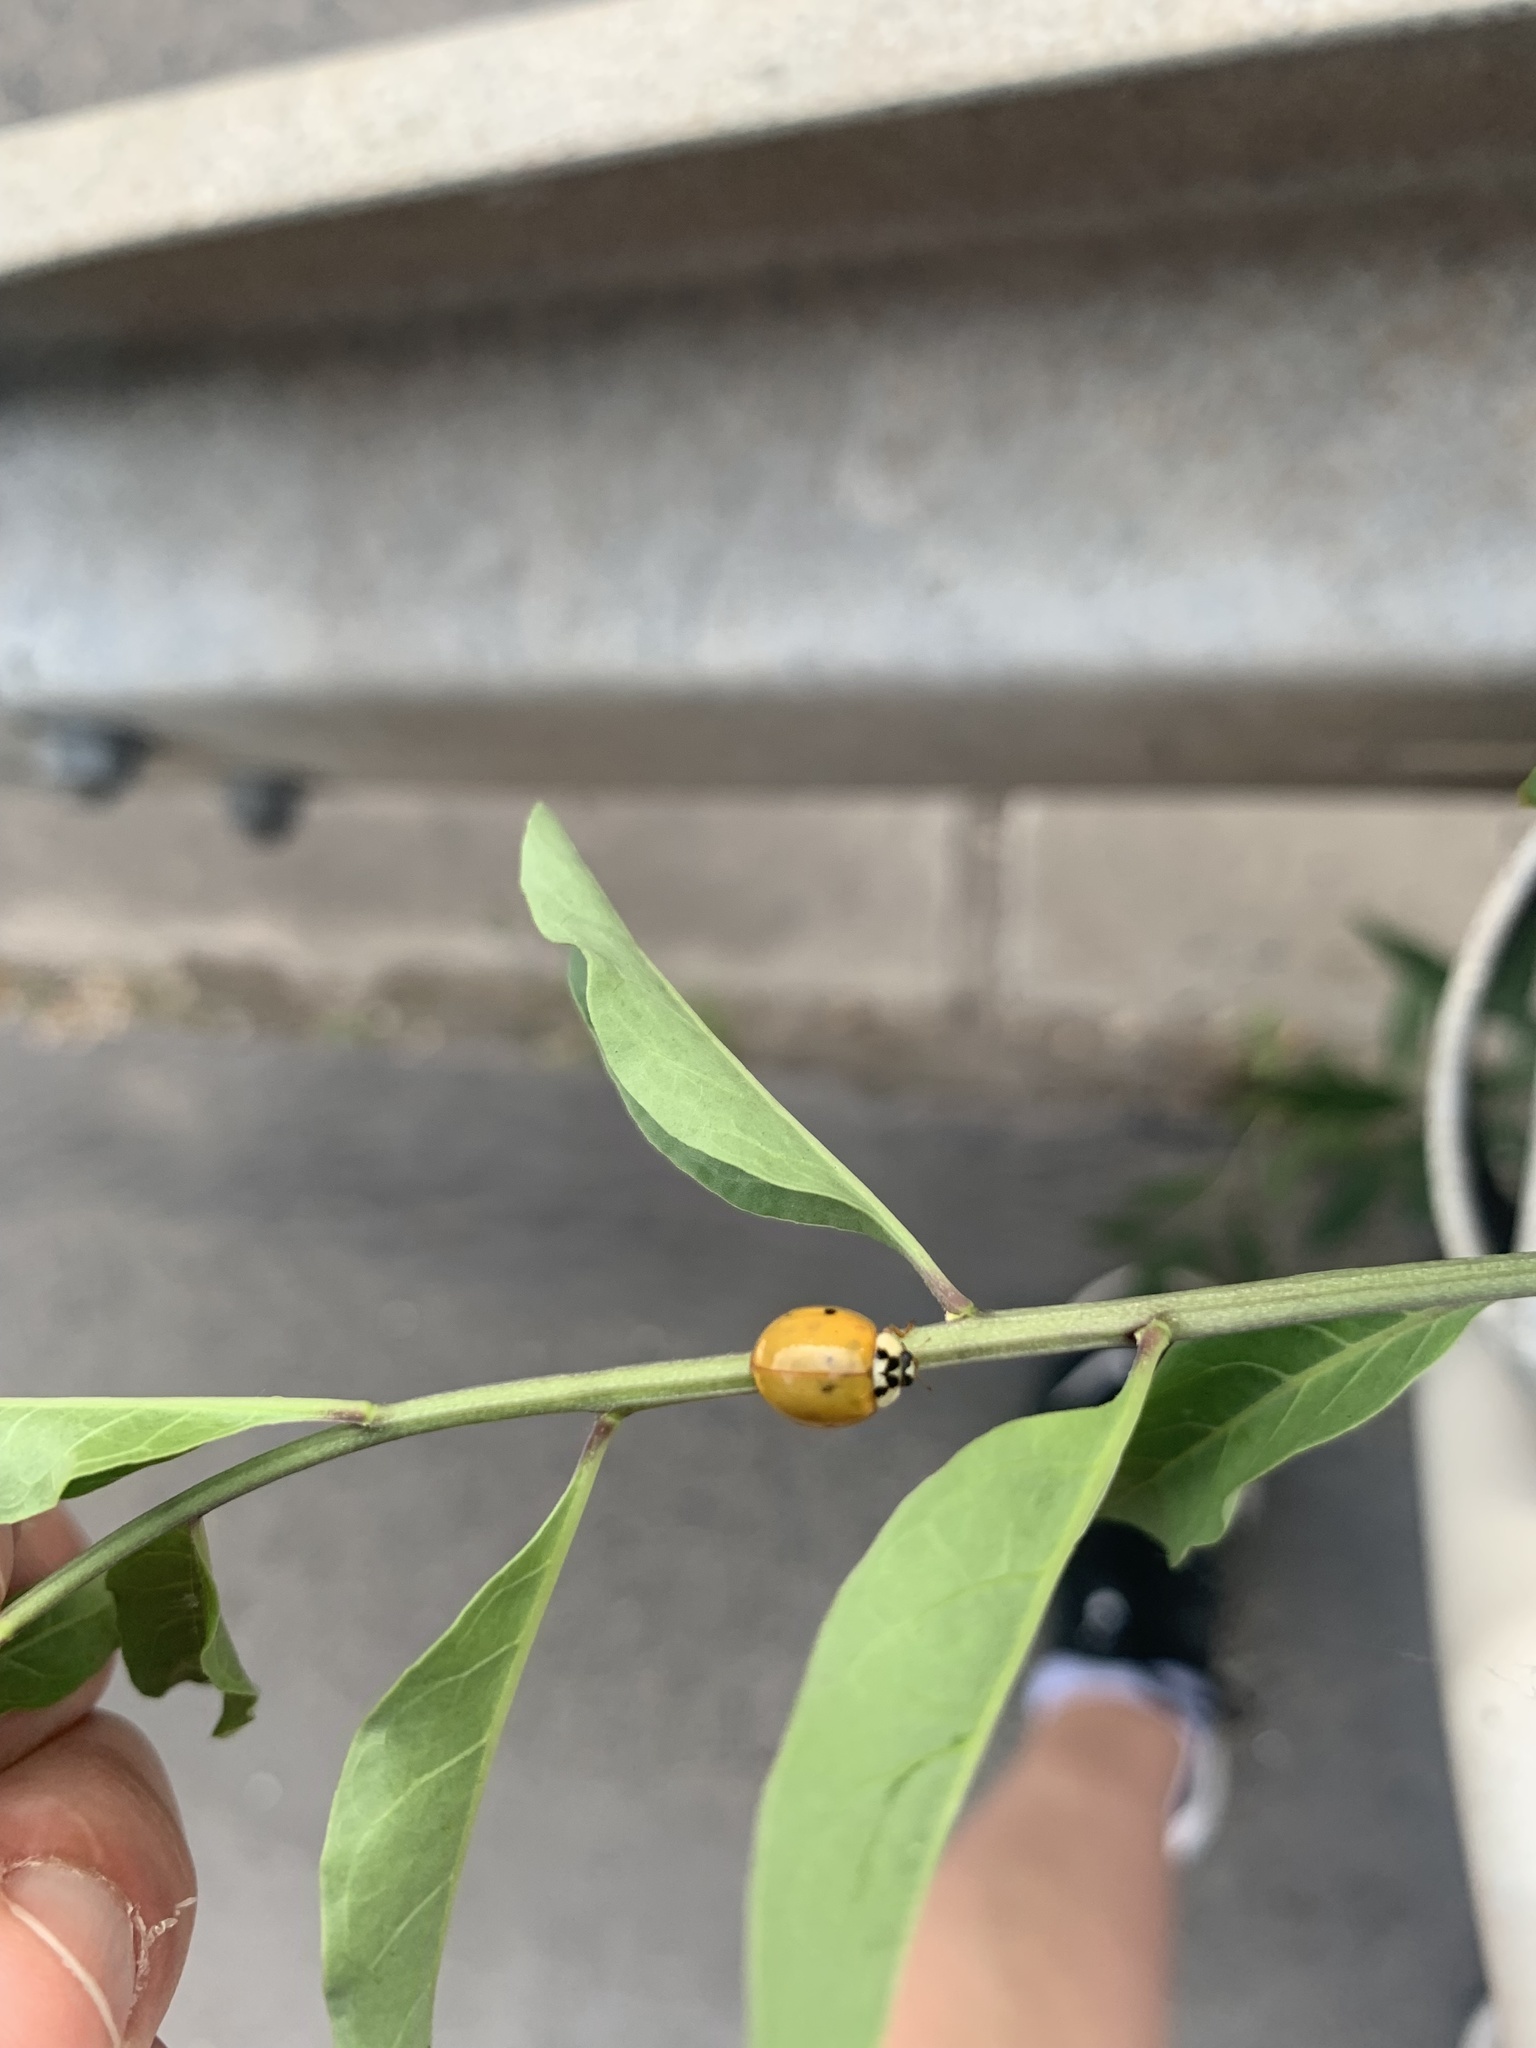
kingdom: Animalia
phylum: Arthropoda
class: Insecta
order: Coleoptera
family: Coccinellidae
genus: Harmonia
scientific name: Harmonia axyridis
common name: Harlequin ladybird
